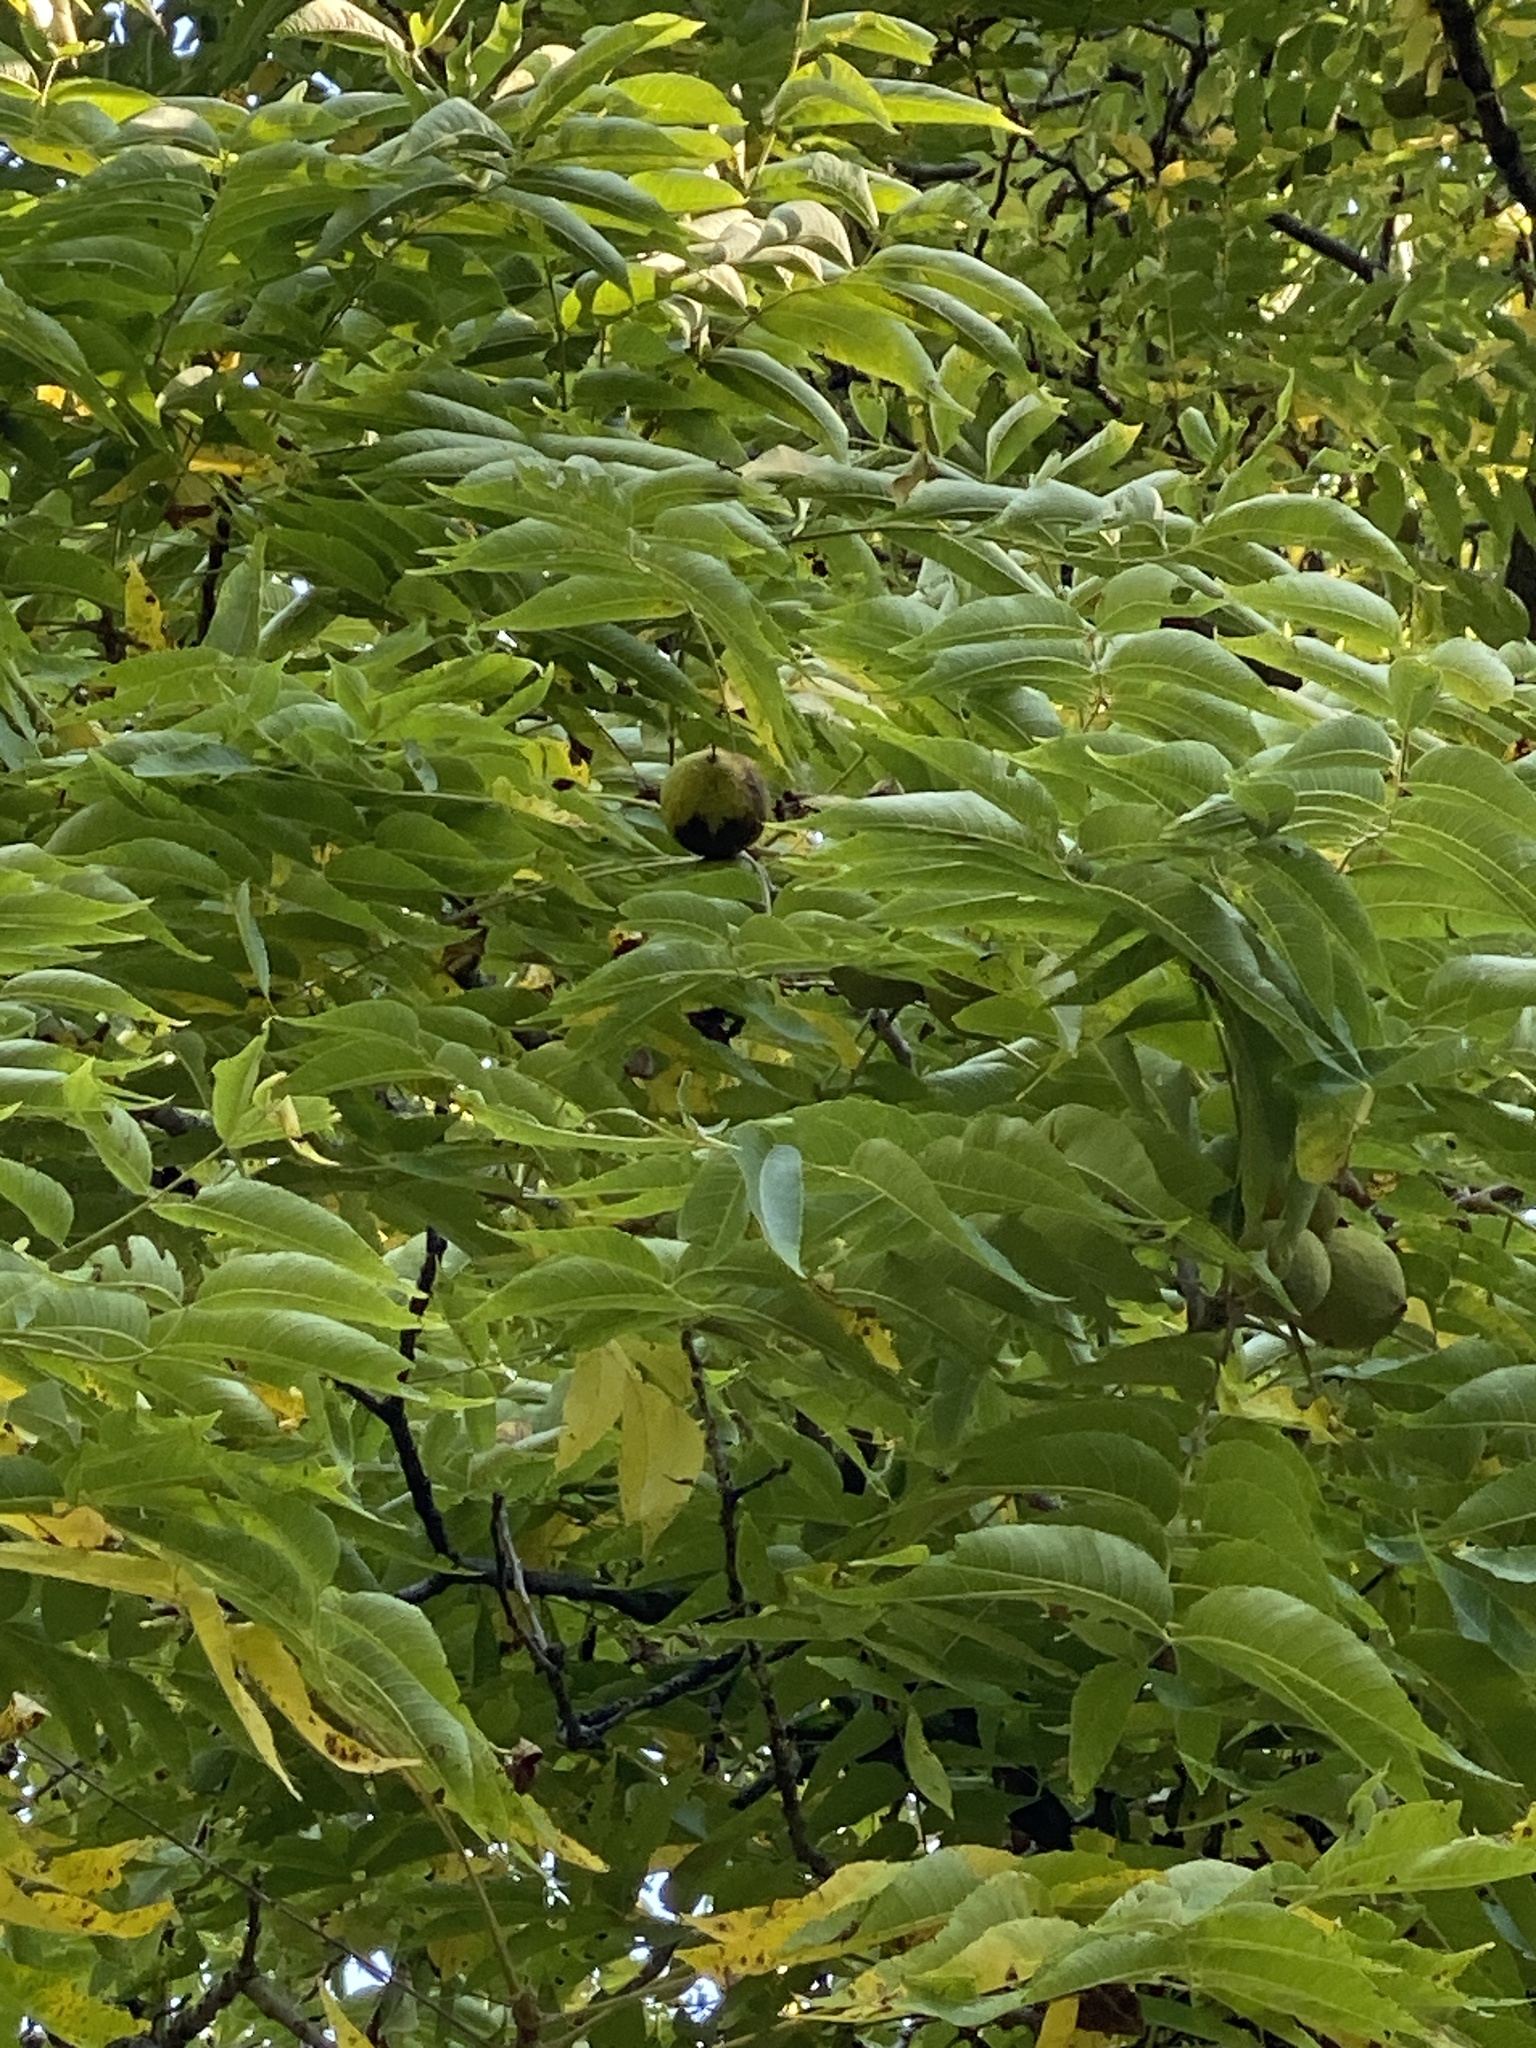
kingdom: Plantae
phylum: Tracheophyta
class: Magnoliopsida
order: Fagales
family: Juglandaceae
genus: Juglans
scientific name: Juglans nigra
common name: Black walnut
